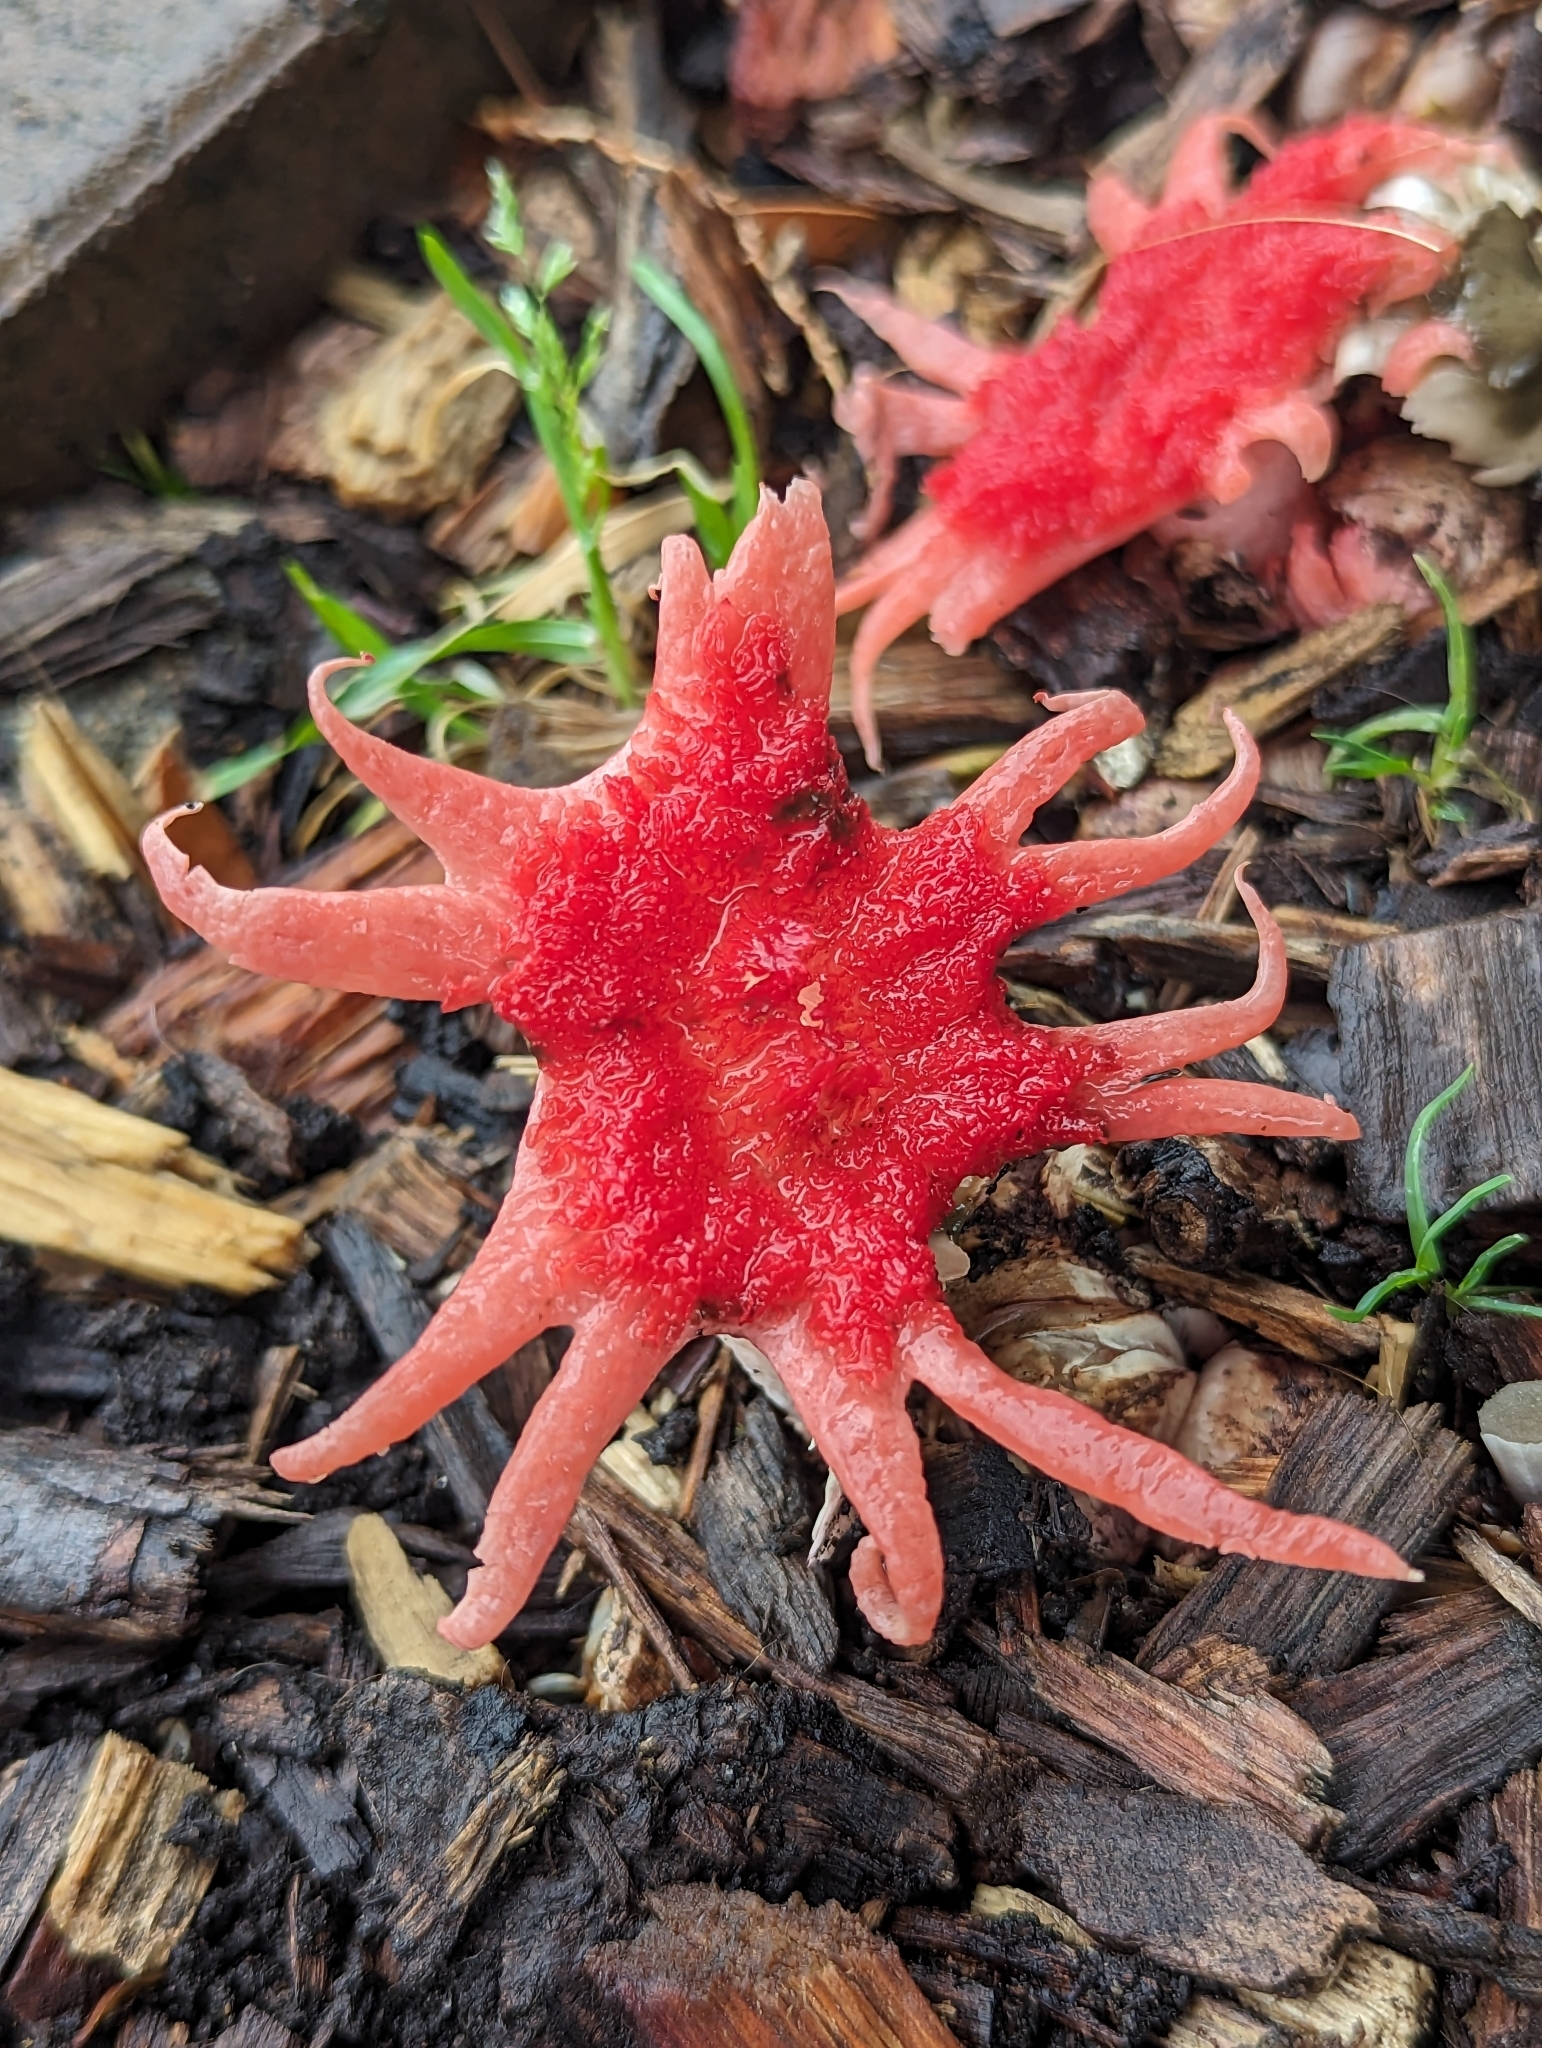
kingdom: Fungi
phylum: Basidiomycota
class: Agaricomycetes
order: Phallales
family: Phallaceae
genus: Aseroe
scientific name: Aseroe rubra
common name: Starfish fungus
